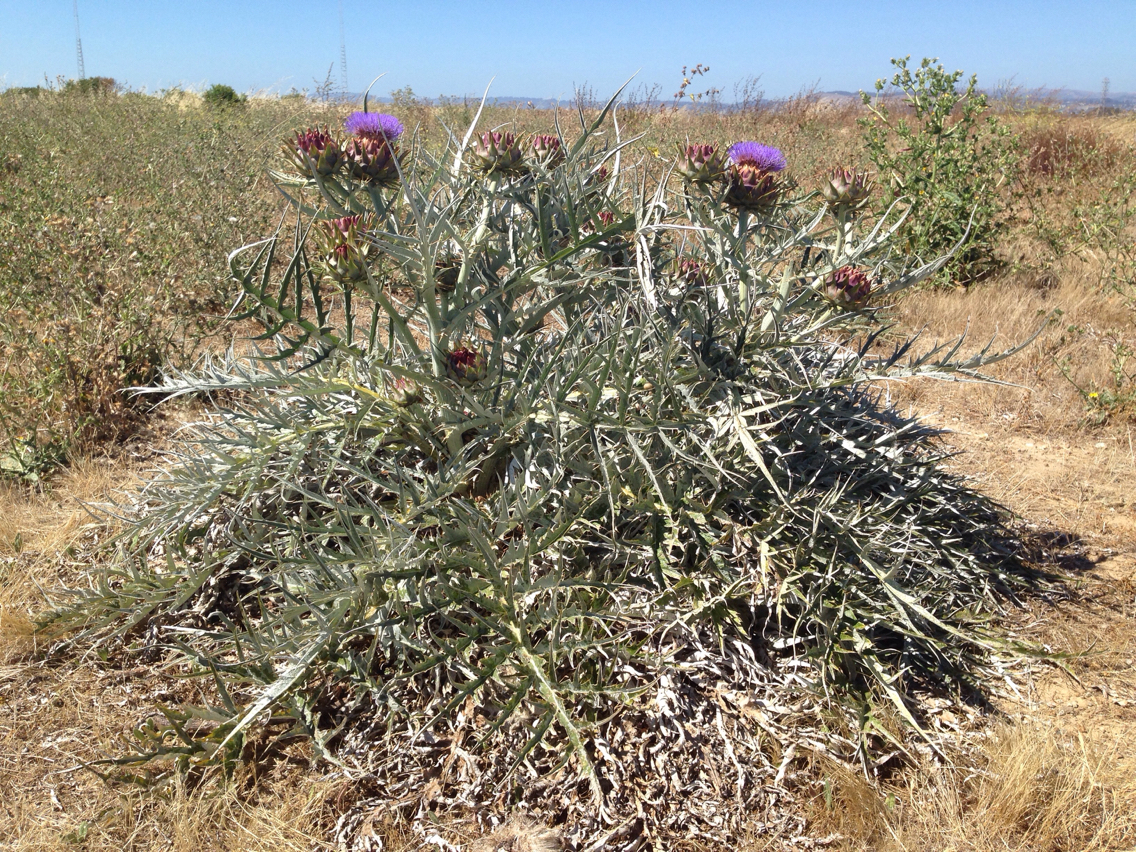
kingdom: Plantae
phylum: Tracheophyta
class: Magnoliopsida
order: Asterales
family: Asteraceae
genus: Cynara
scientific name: Cynara cardunculus
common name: Globe artichoke
